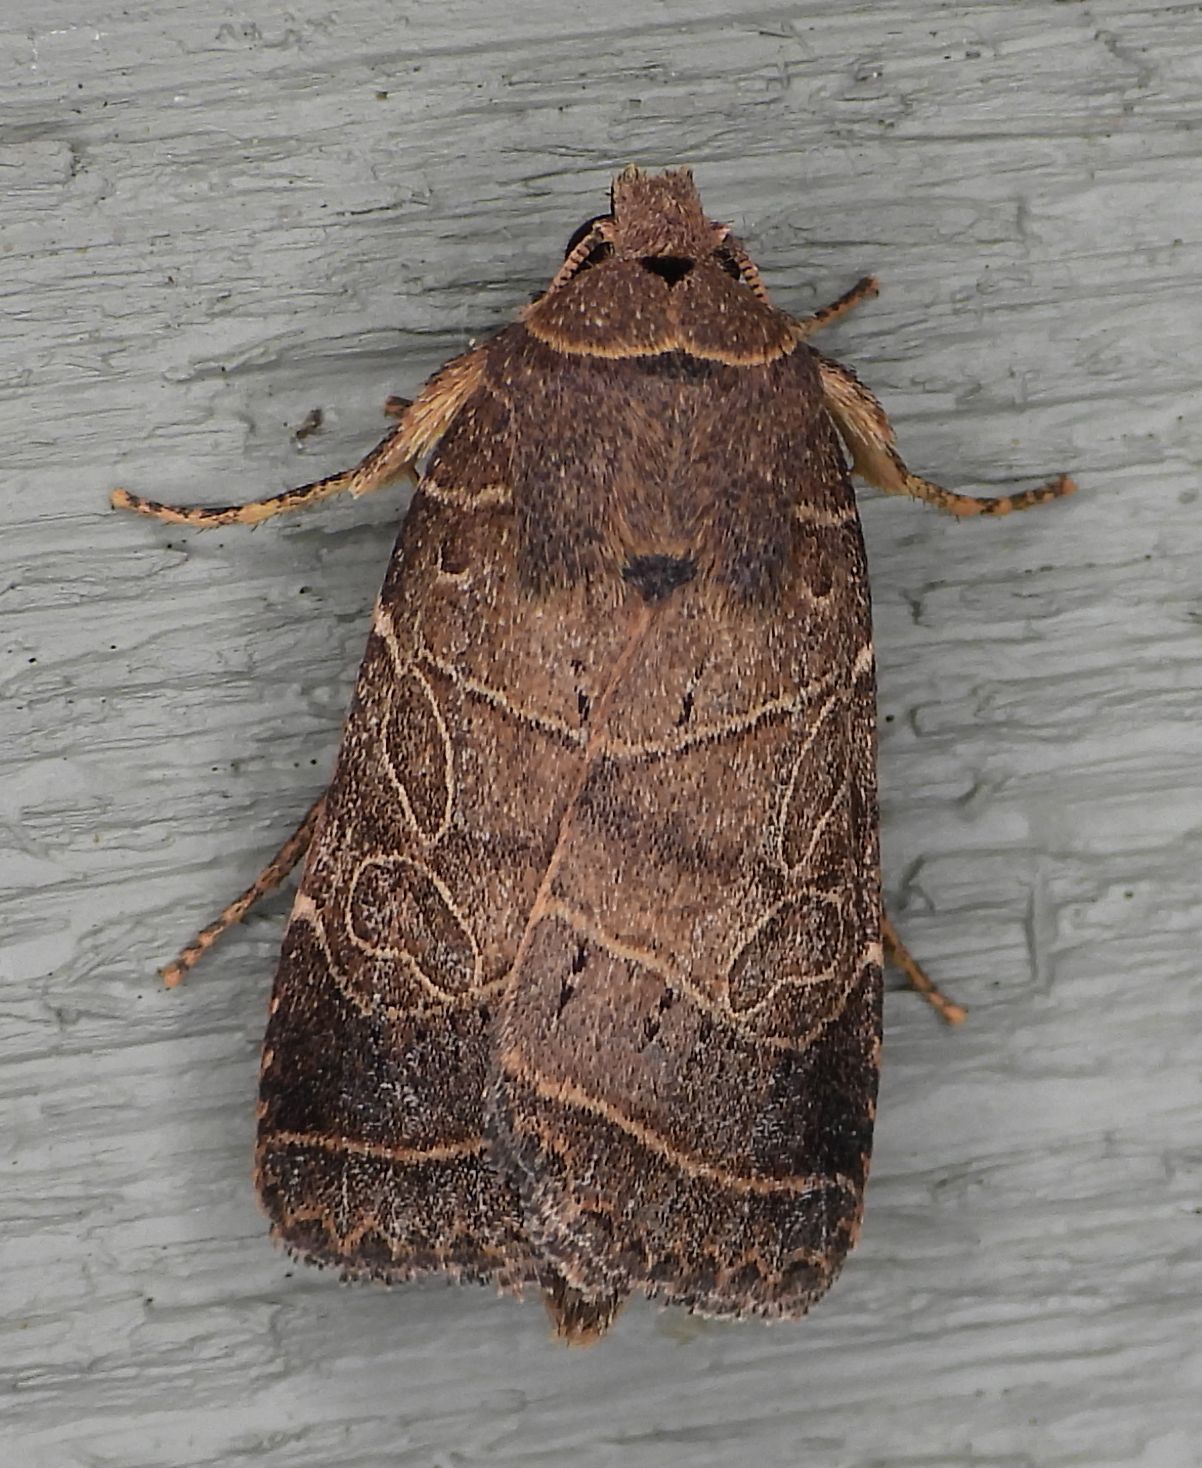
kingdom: Animalia
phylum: Arthropoda
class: Insecta
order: Lepidoptera
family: Noctuidae
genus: Orthodes
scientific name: Orthodes majuscula
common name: Rustic quaker
